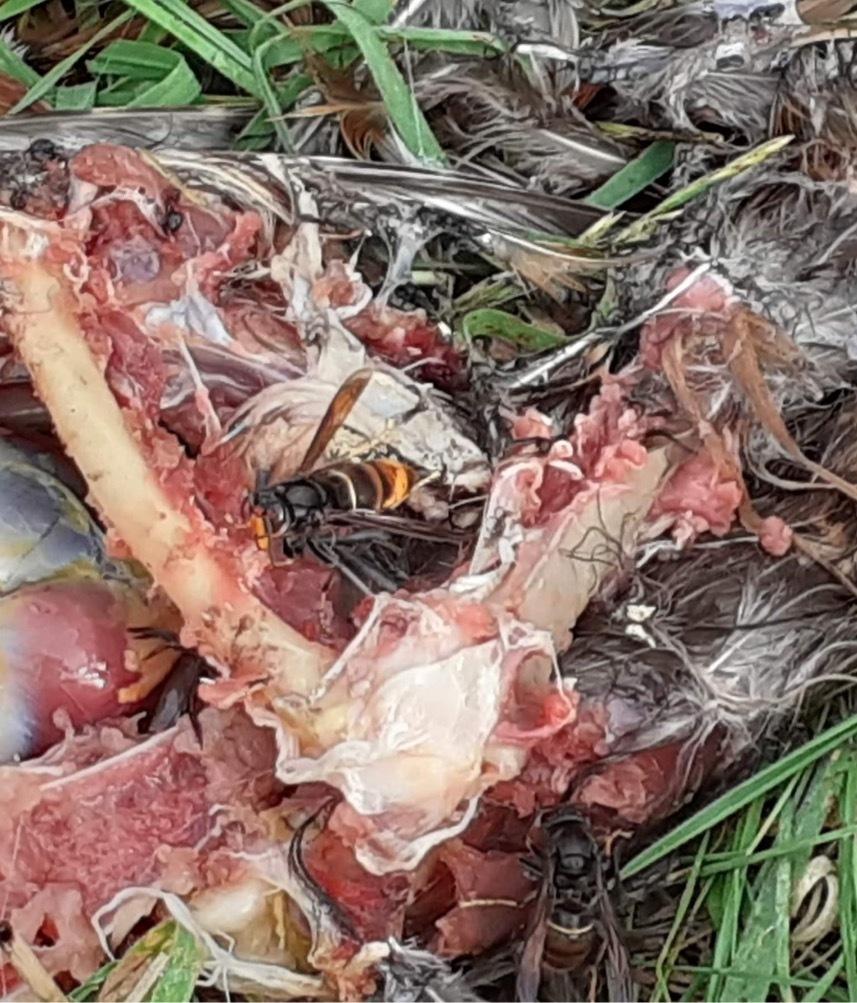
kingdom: Animalia
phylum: Arthropoda
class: Insecta
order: Hymenoptera
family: Vespidae
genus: Vespa
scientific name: Vespa velutina
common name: Asian hornet
